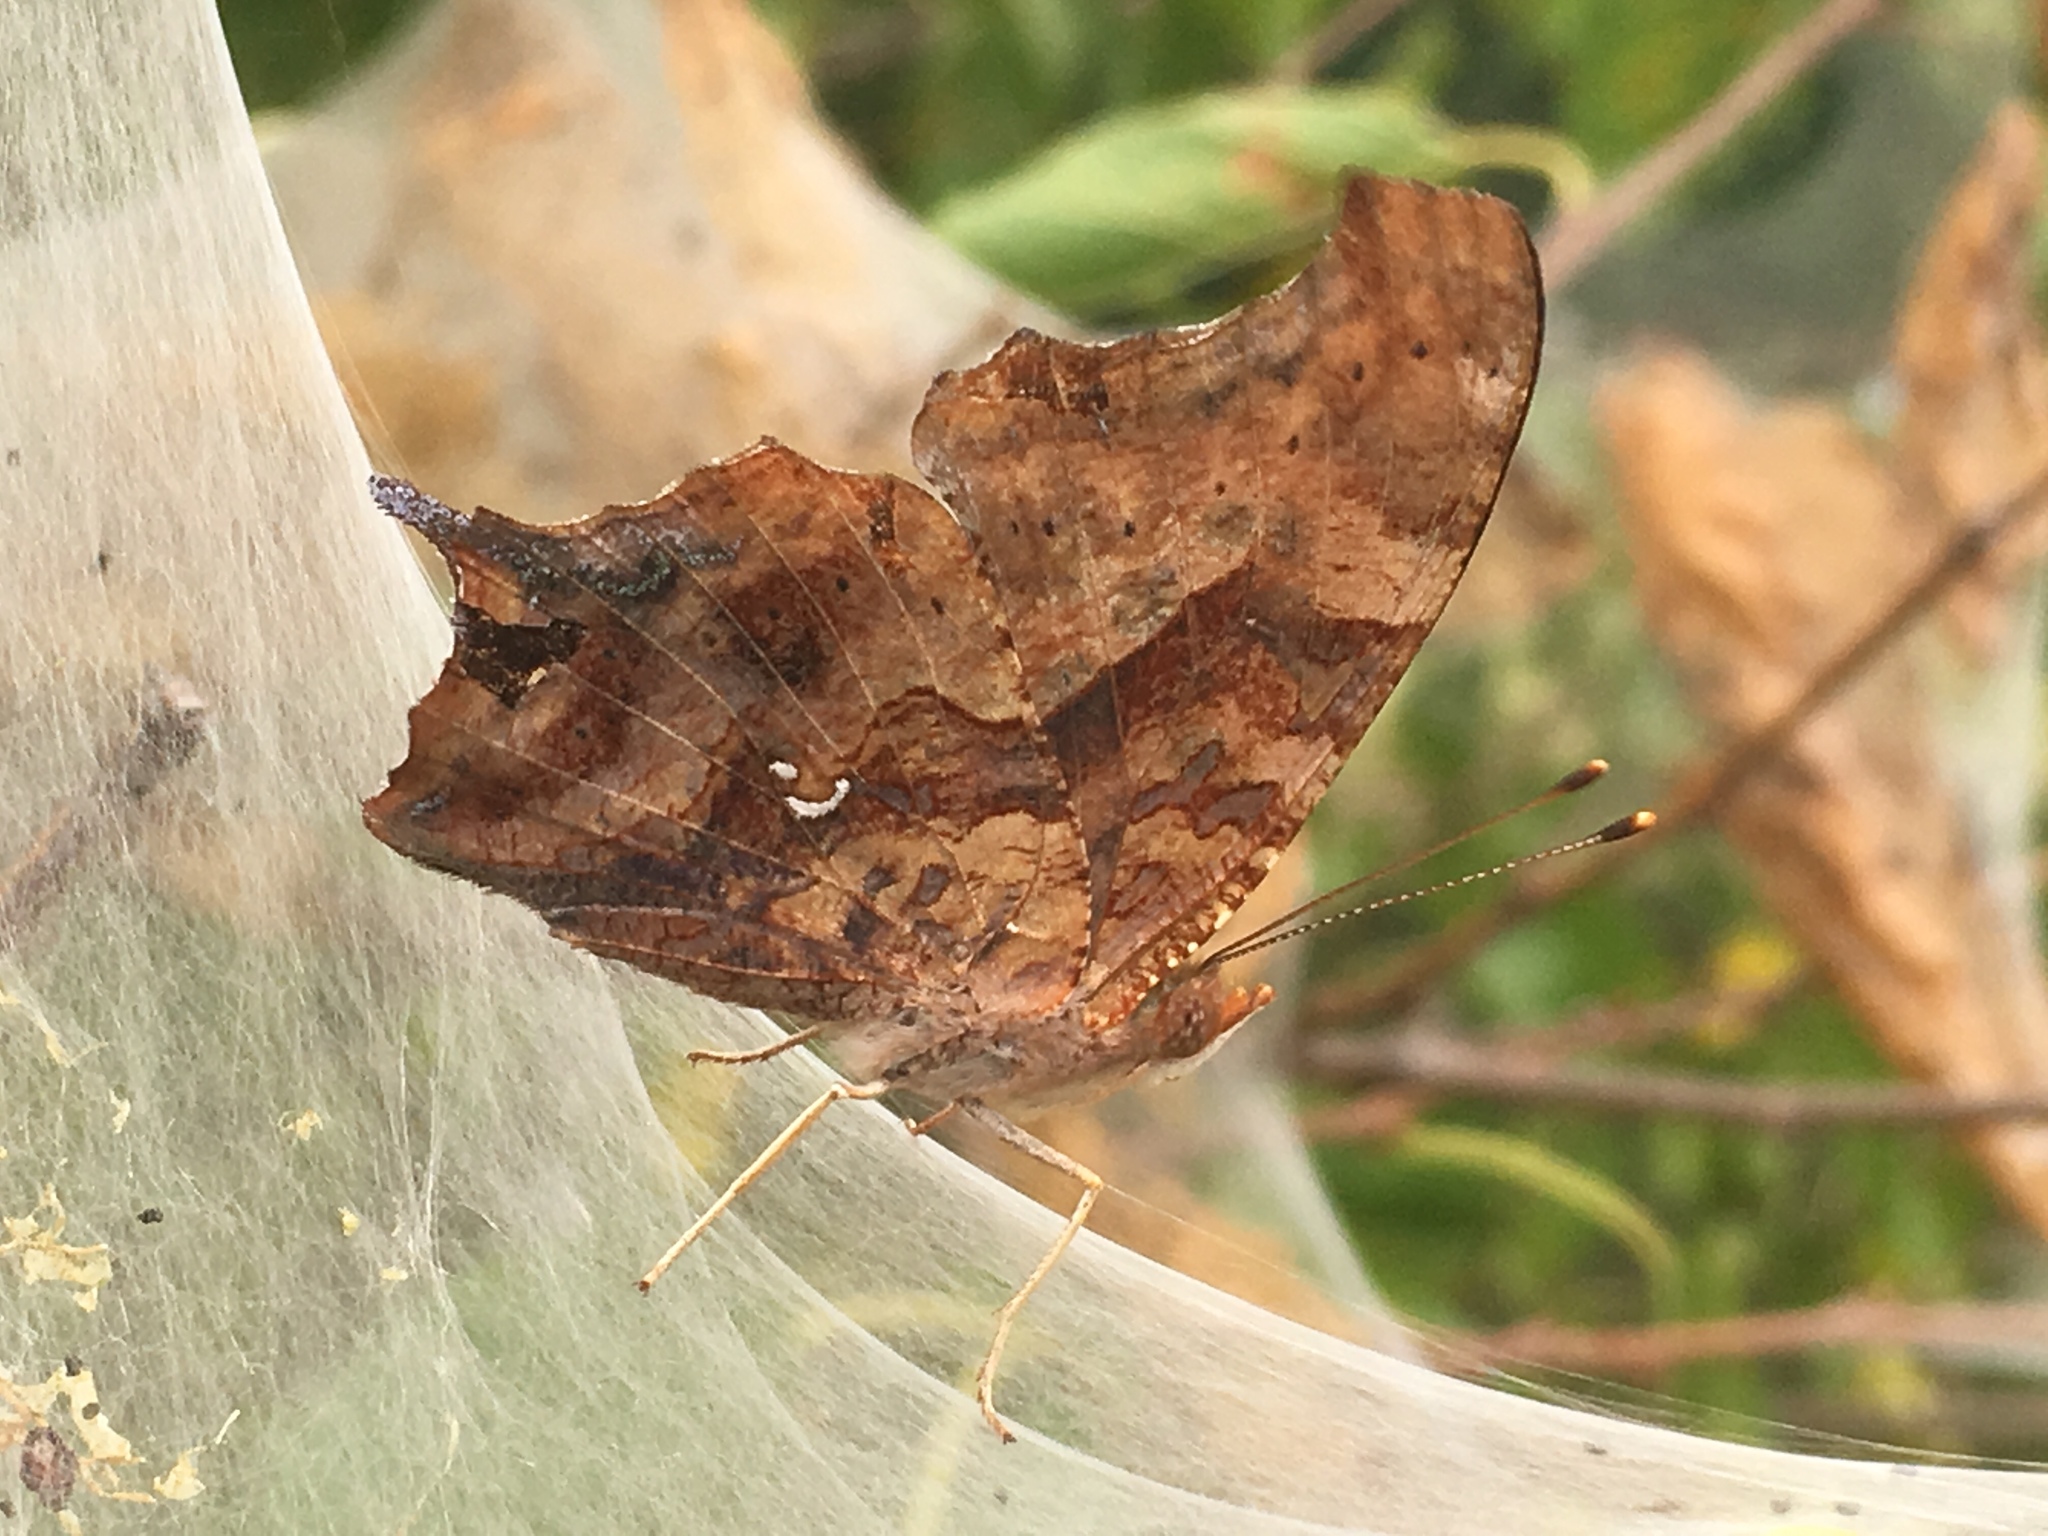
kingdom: Animalia
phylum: Arthropoda
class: Insecta
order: Lepidoptera
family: Nymphalidae
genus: Polygonia
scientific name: Polygonia interrogationis
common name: Question mark
